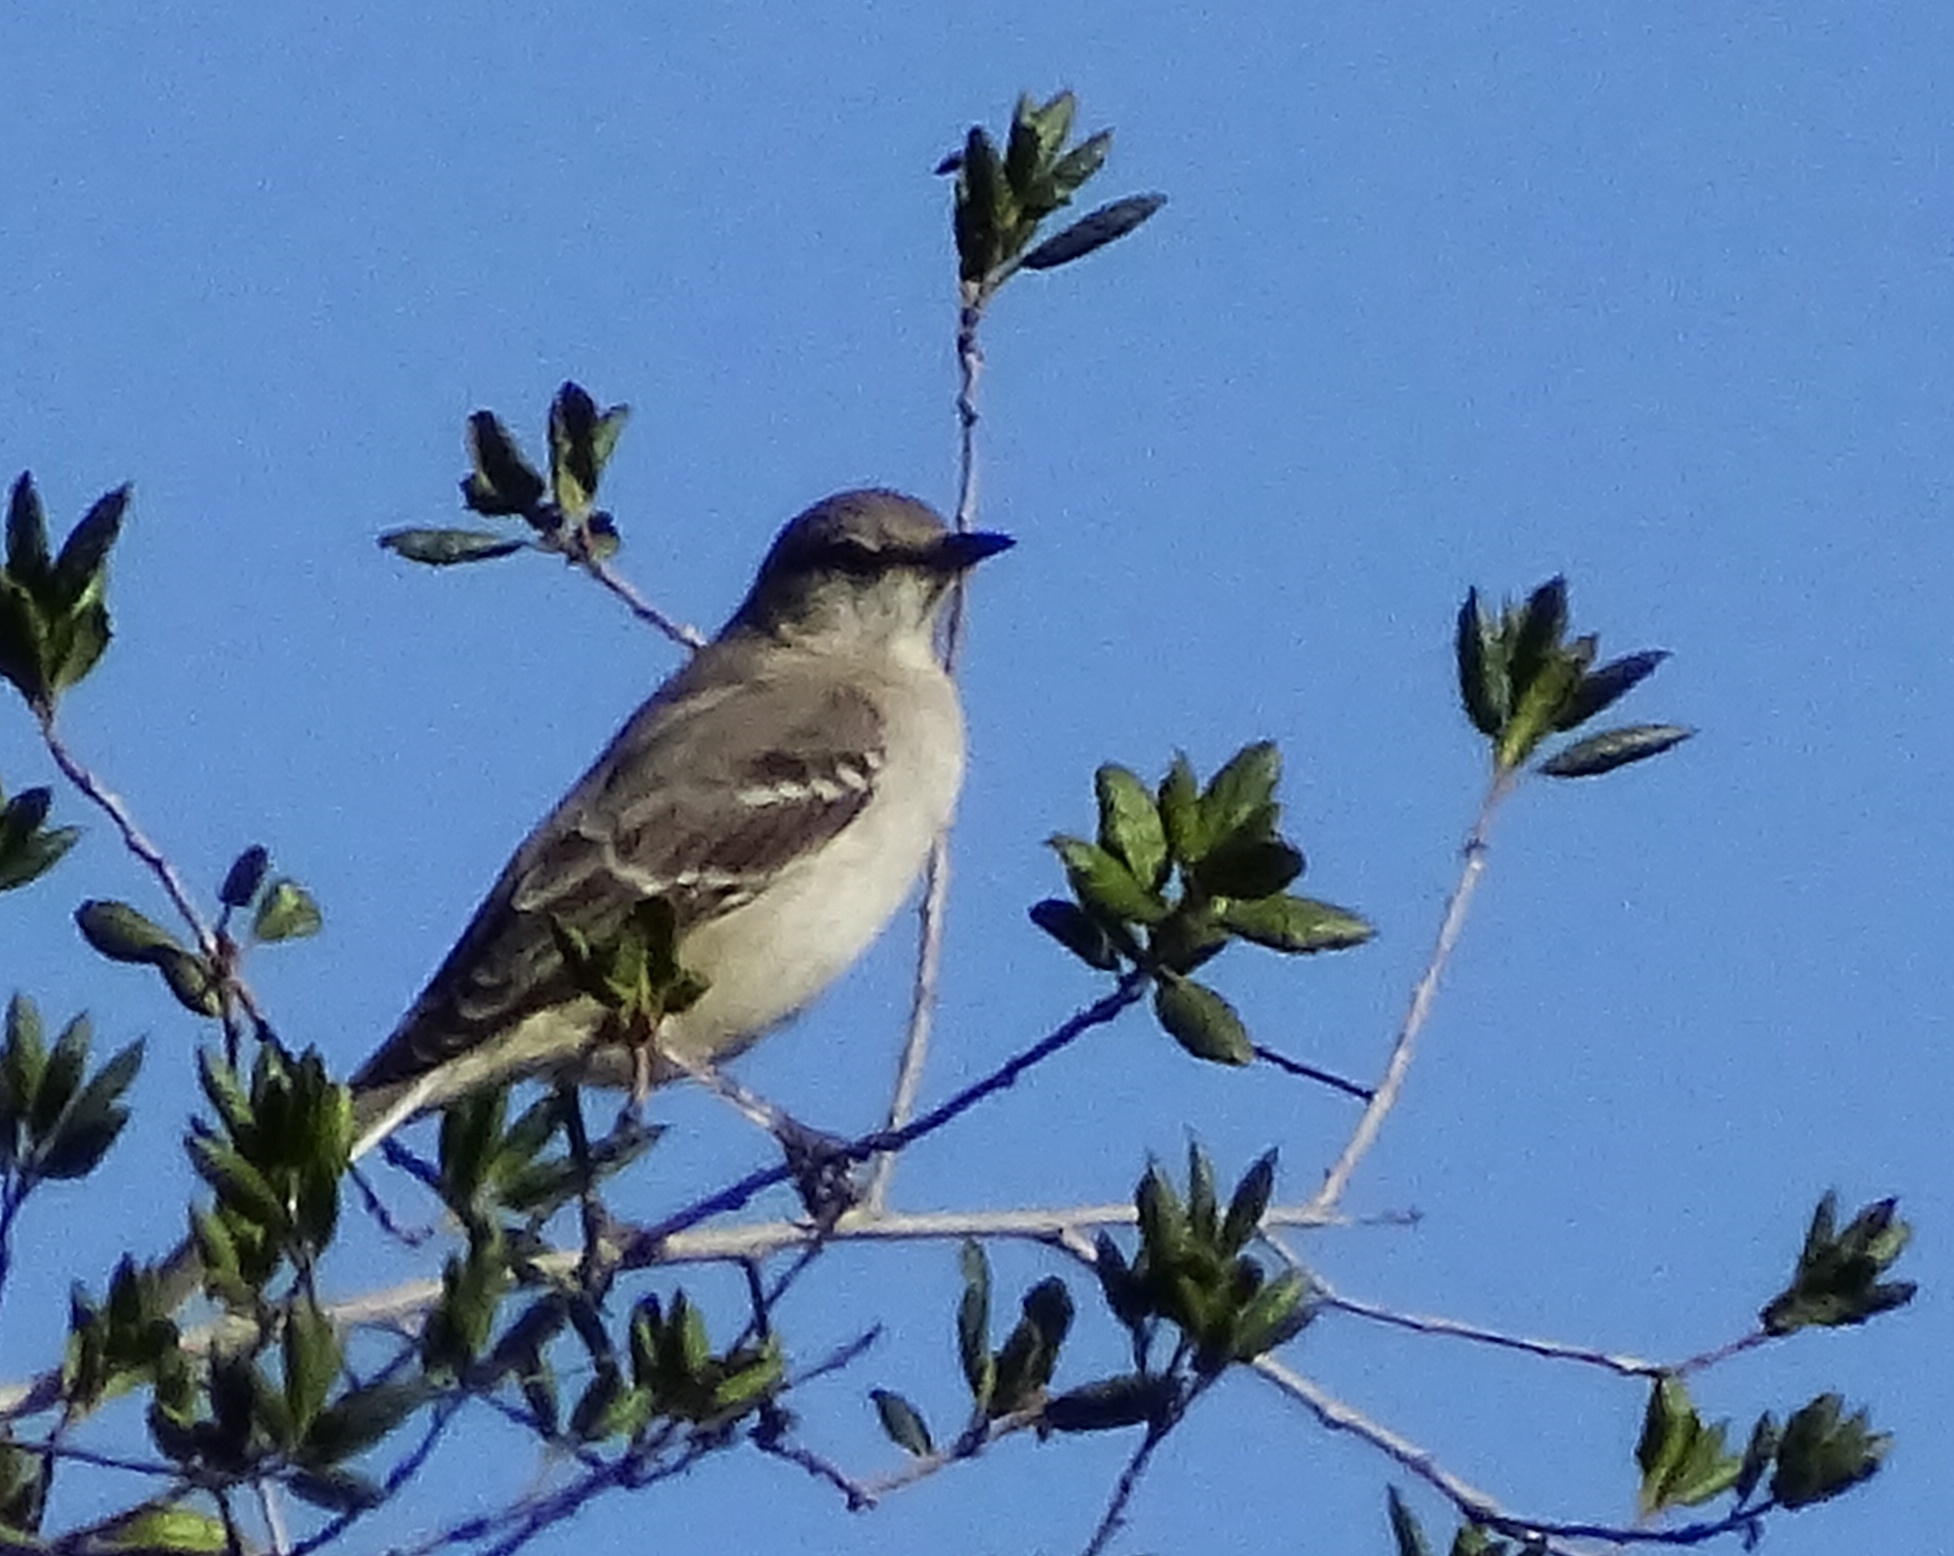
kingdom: Animalia
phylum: Chordata
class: Aves
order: Passeriformes
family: Mimidae
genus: Mimus
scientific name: Mimus polyglottos
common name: Northern mockingbird
